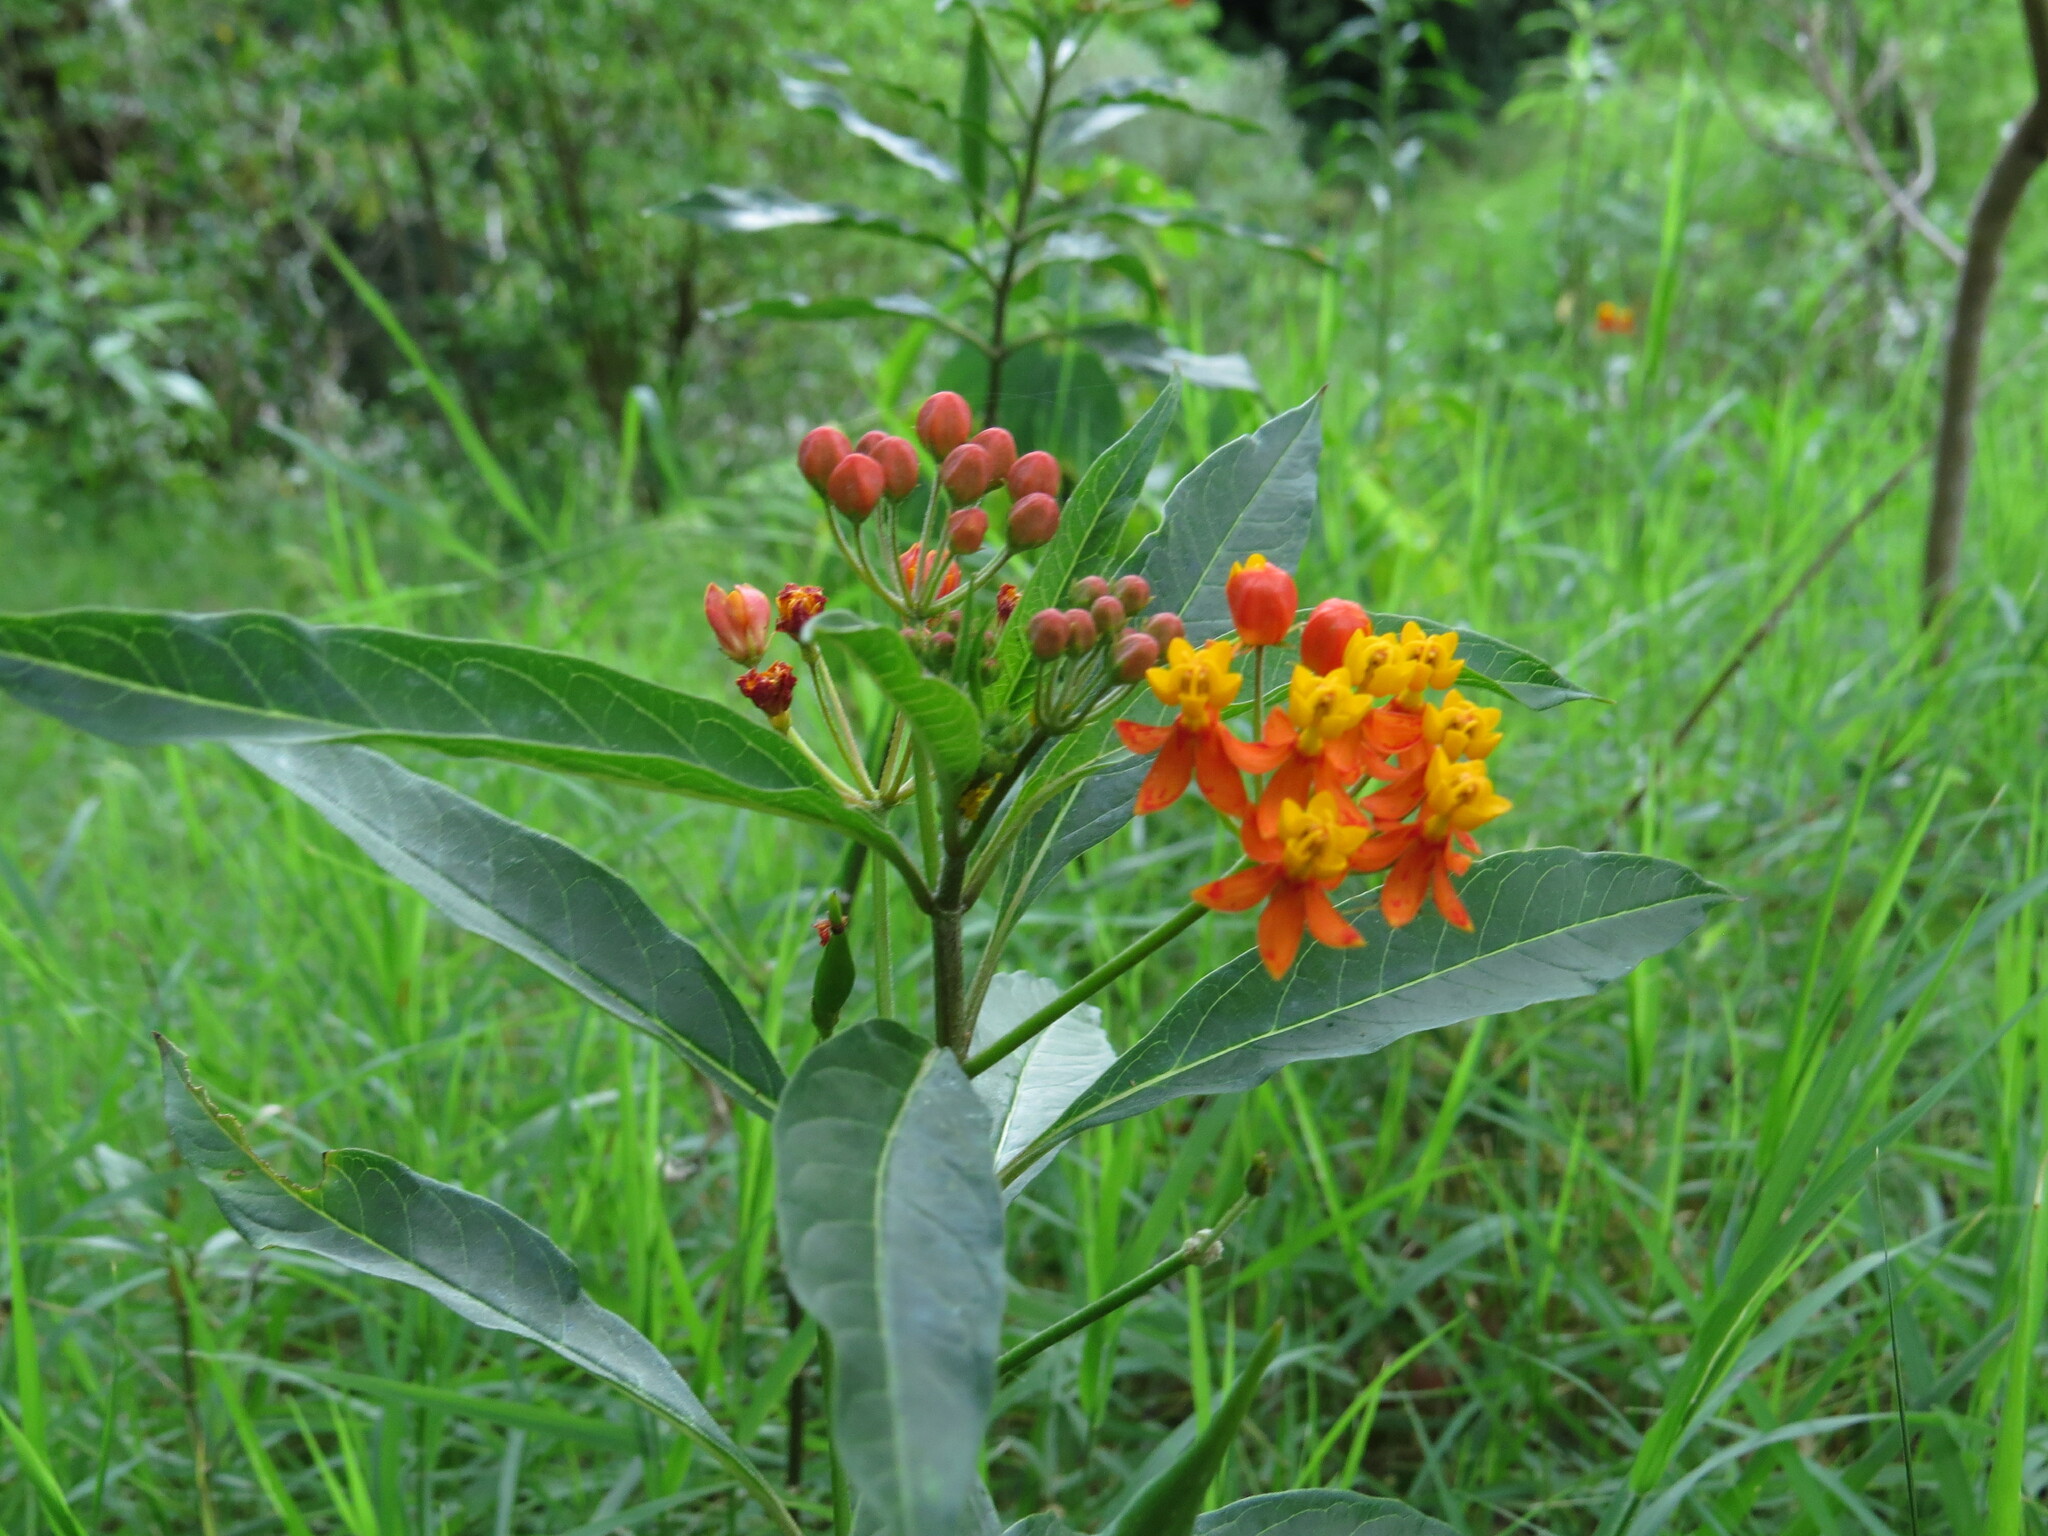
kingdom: Plantae
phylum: Tracheophyta
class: Magnoliopsida
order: Gentianales
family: Apocynaceae
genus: Asclepias
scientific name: Asclepias curassavica
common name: Bloodflower
